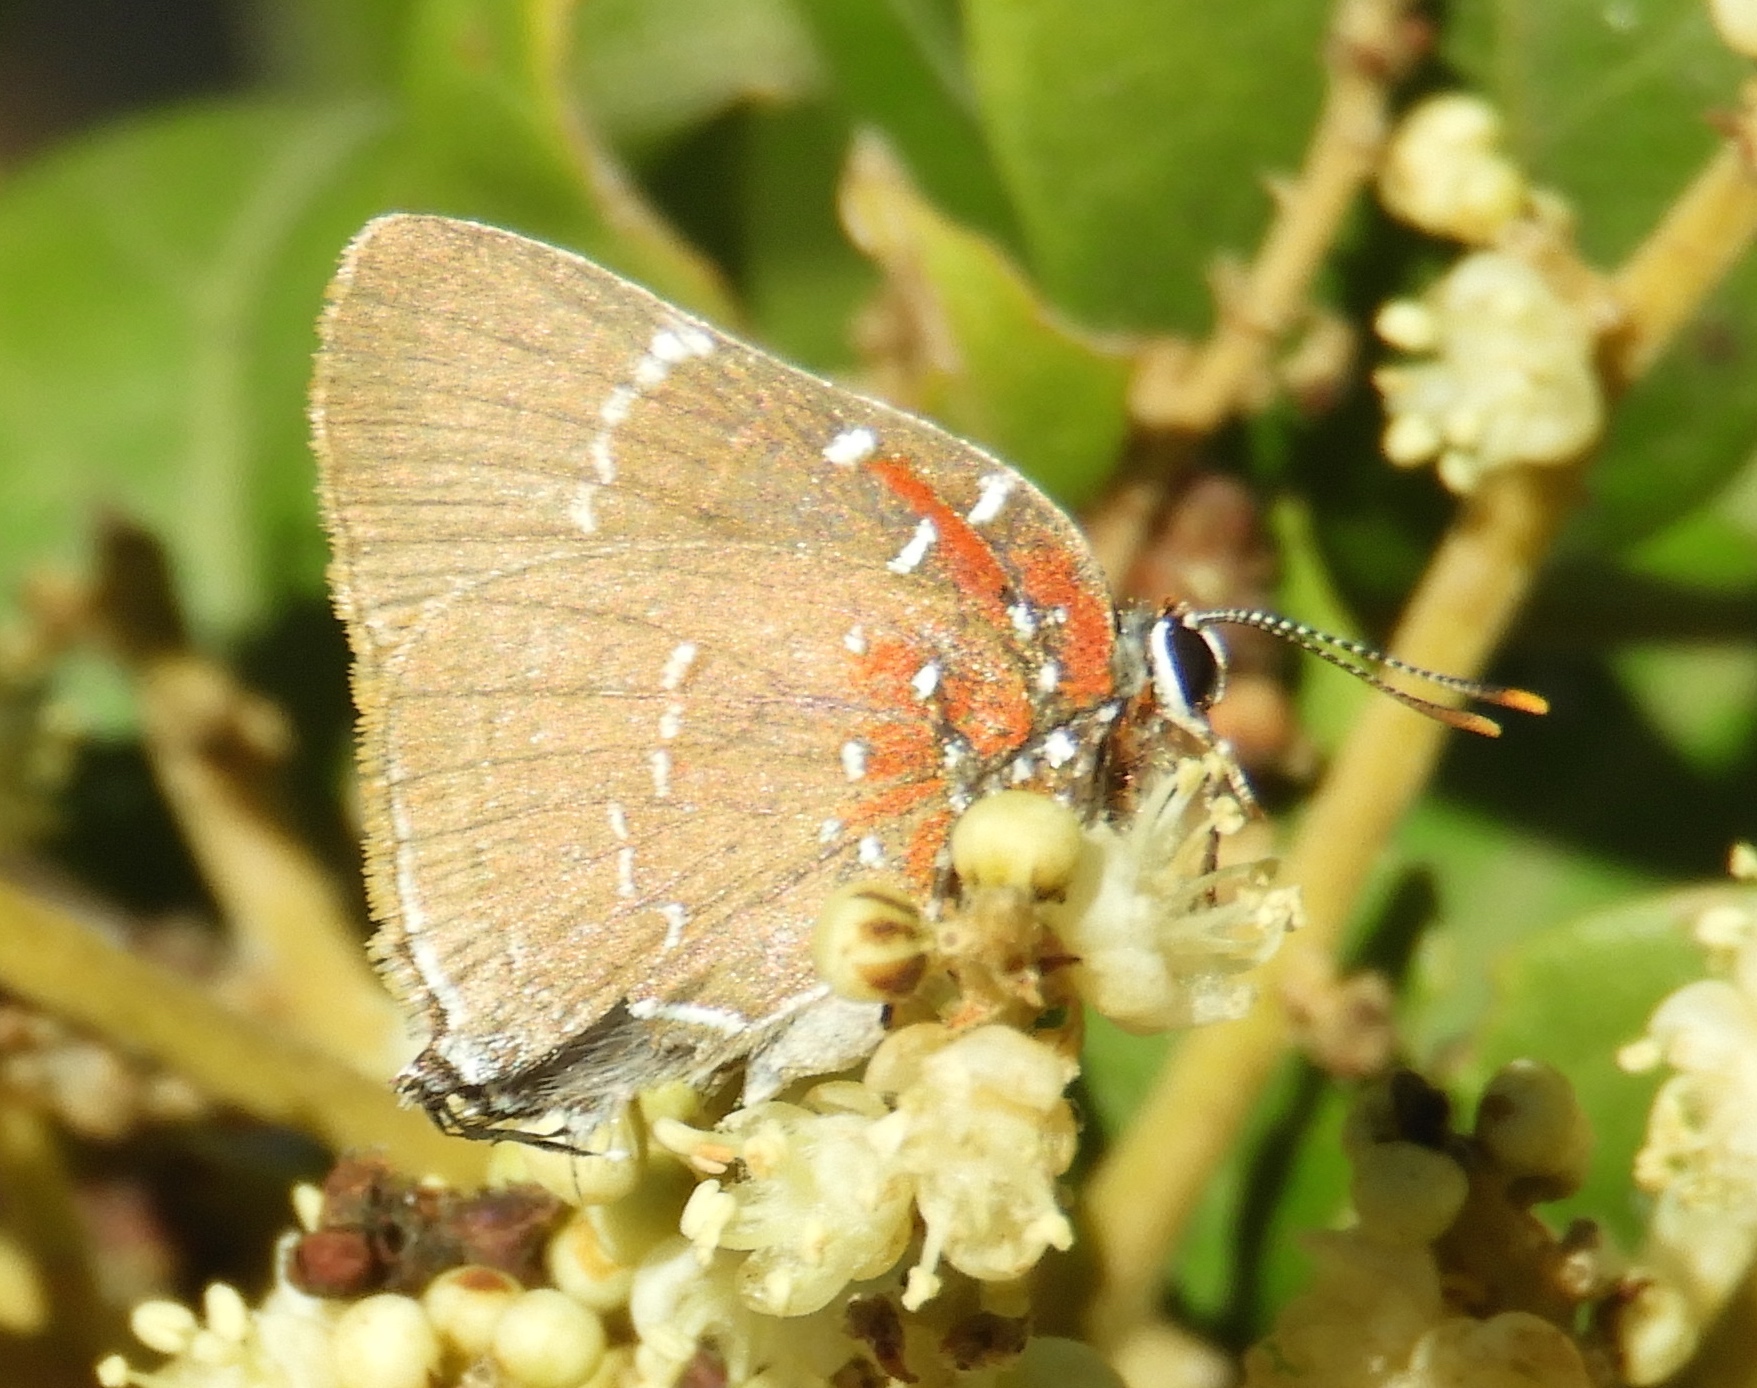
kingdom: Animalia
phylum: Arthropoda
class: Insecta
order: Lepidoptera
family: Lycaenidae
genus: Atlides
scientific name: Atlides Brangas neora
